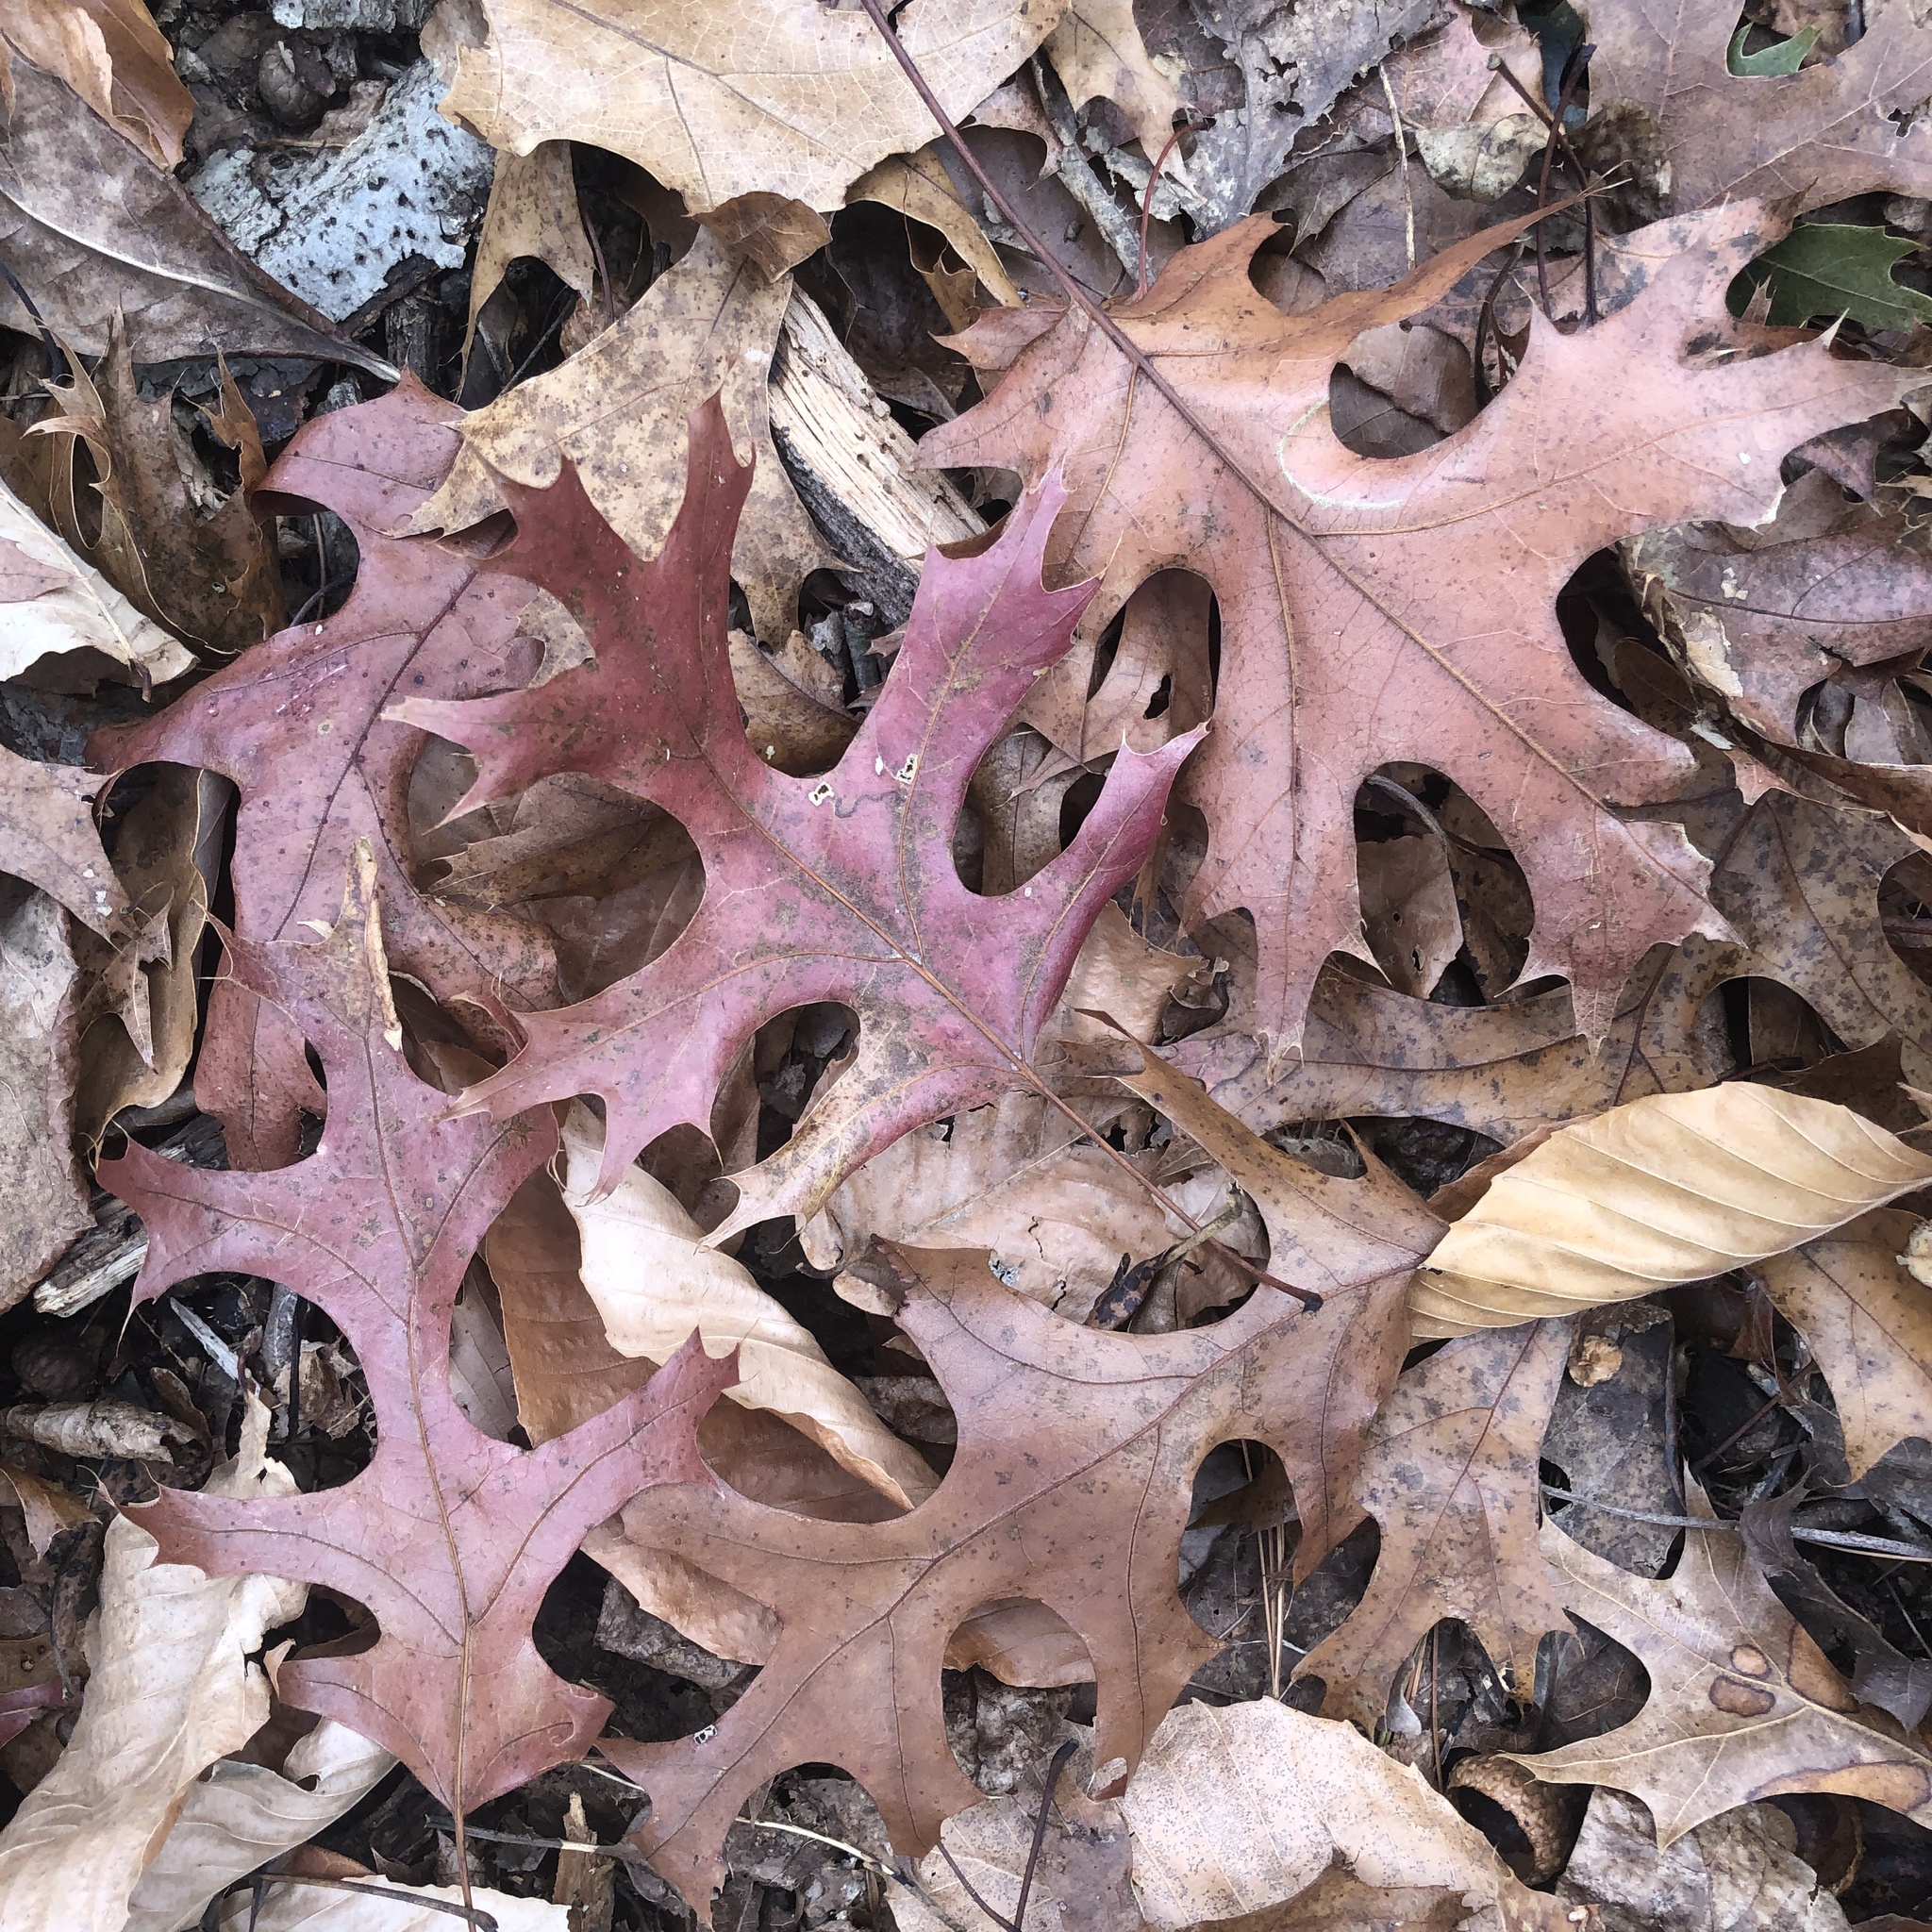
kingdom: Plantae
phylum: Tracheophyta
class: Magnoliopsida
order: Fagales
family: Fagaceae
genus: Quercus
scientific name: Quercus coccinea
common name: Scarlet oak
